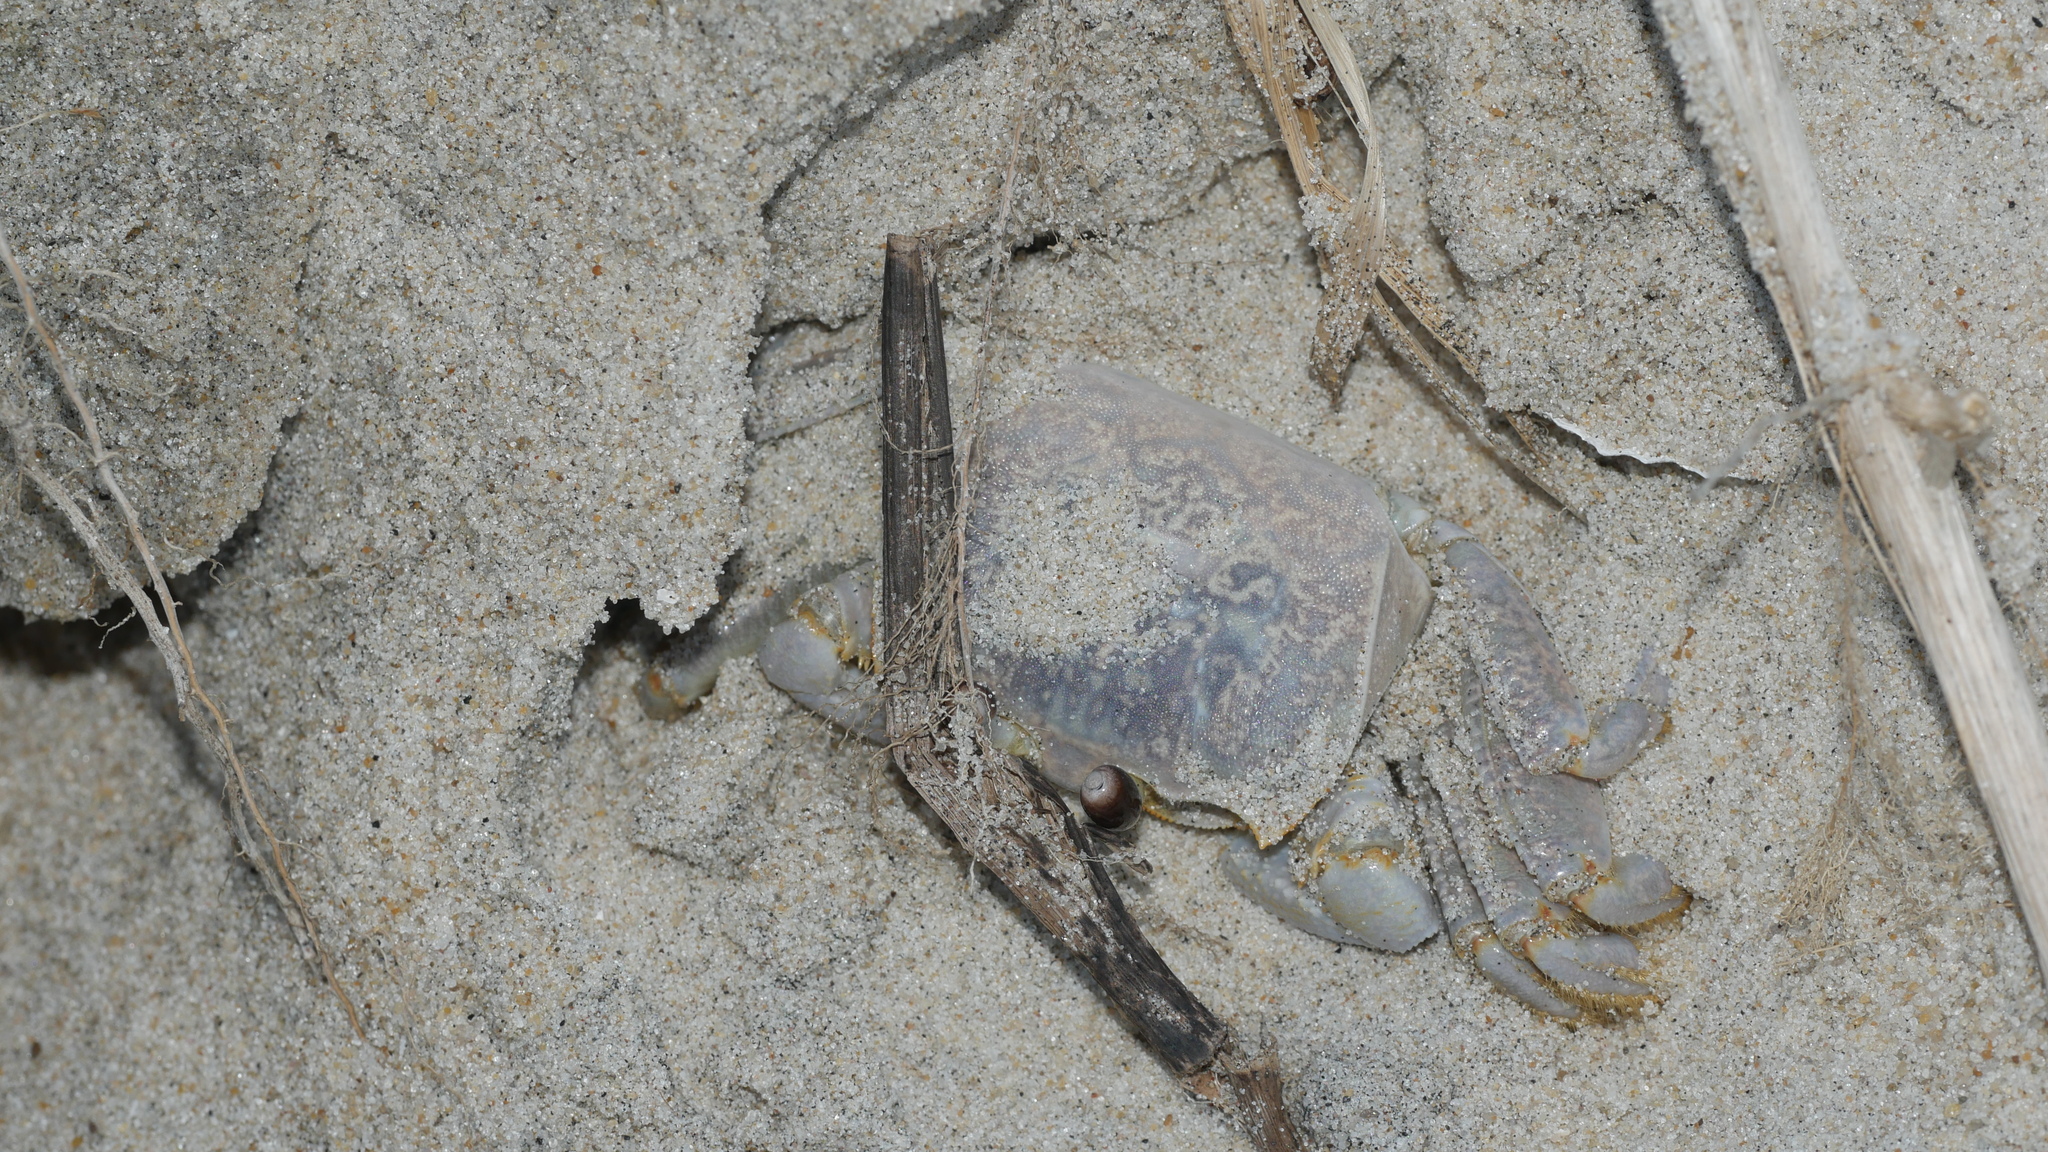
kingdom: Animalia
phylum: Arthropoda
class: Malacostraca
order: Decapoda
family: Ocypodidae
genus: Ocypode
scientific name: Ocypode quadrata
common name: Ghost crab
